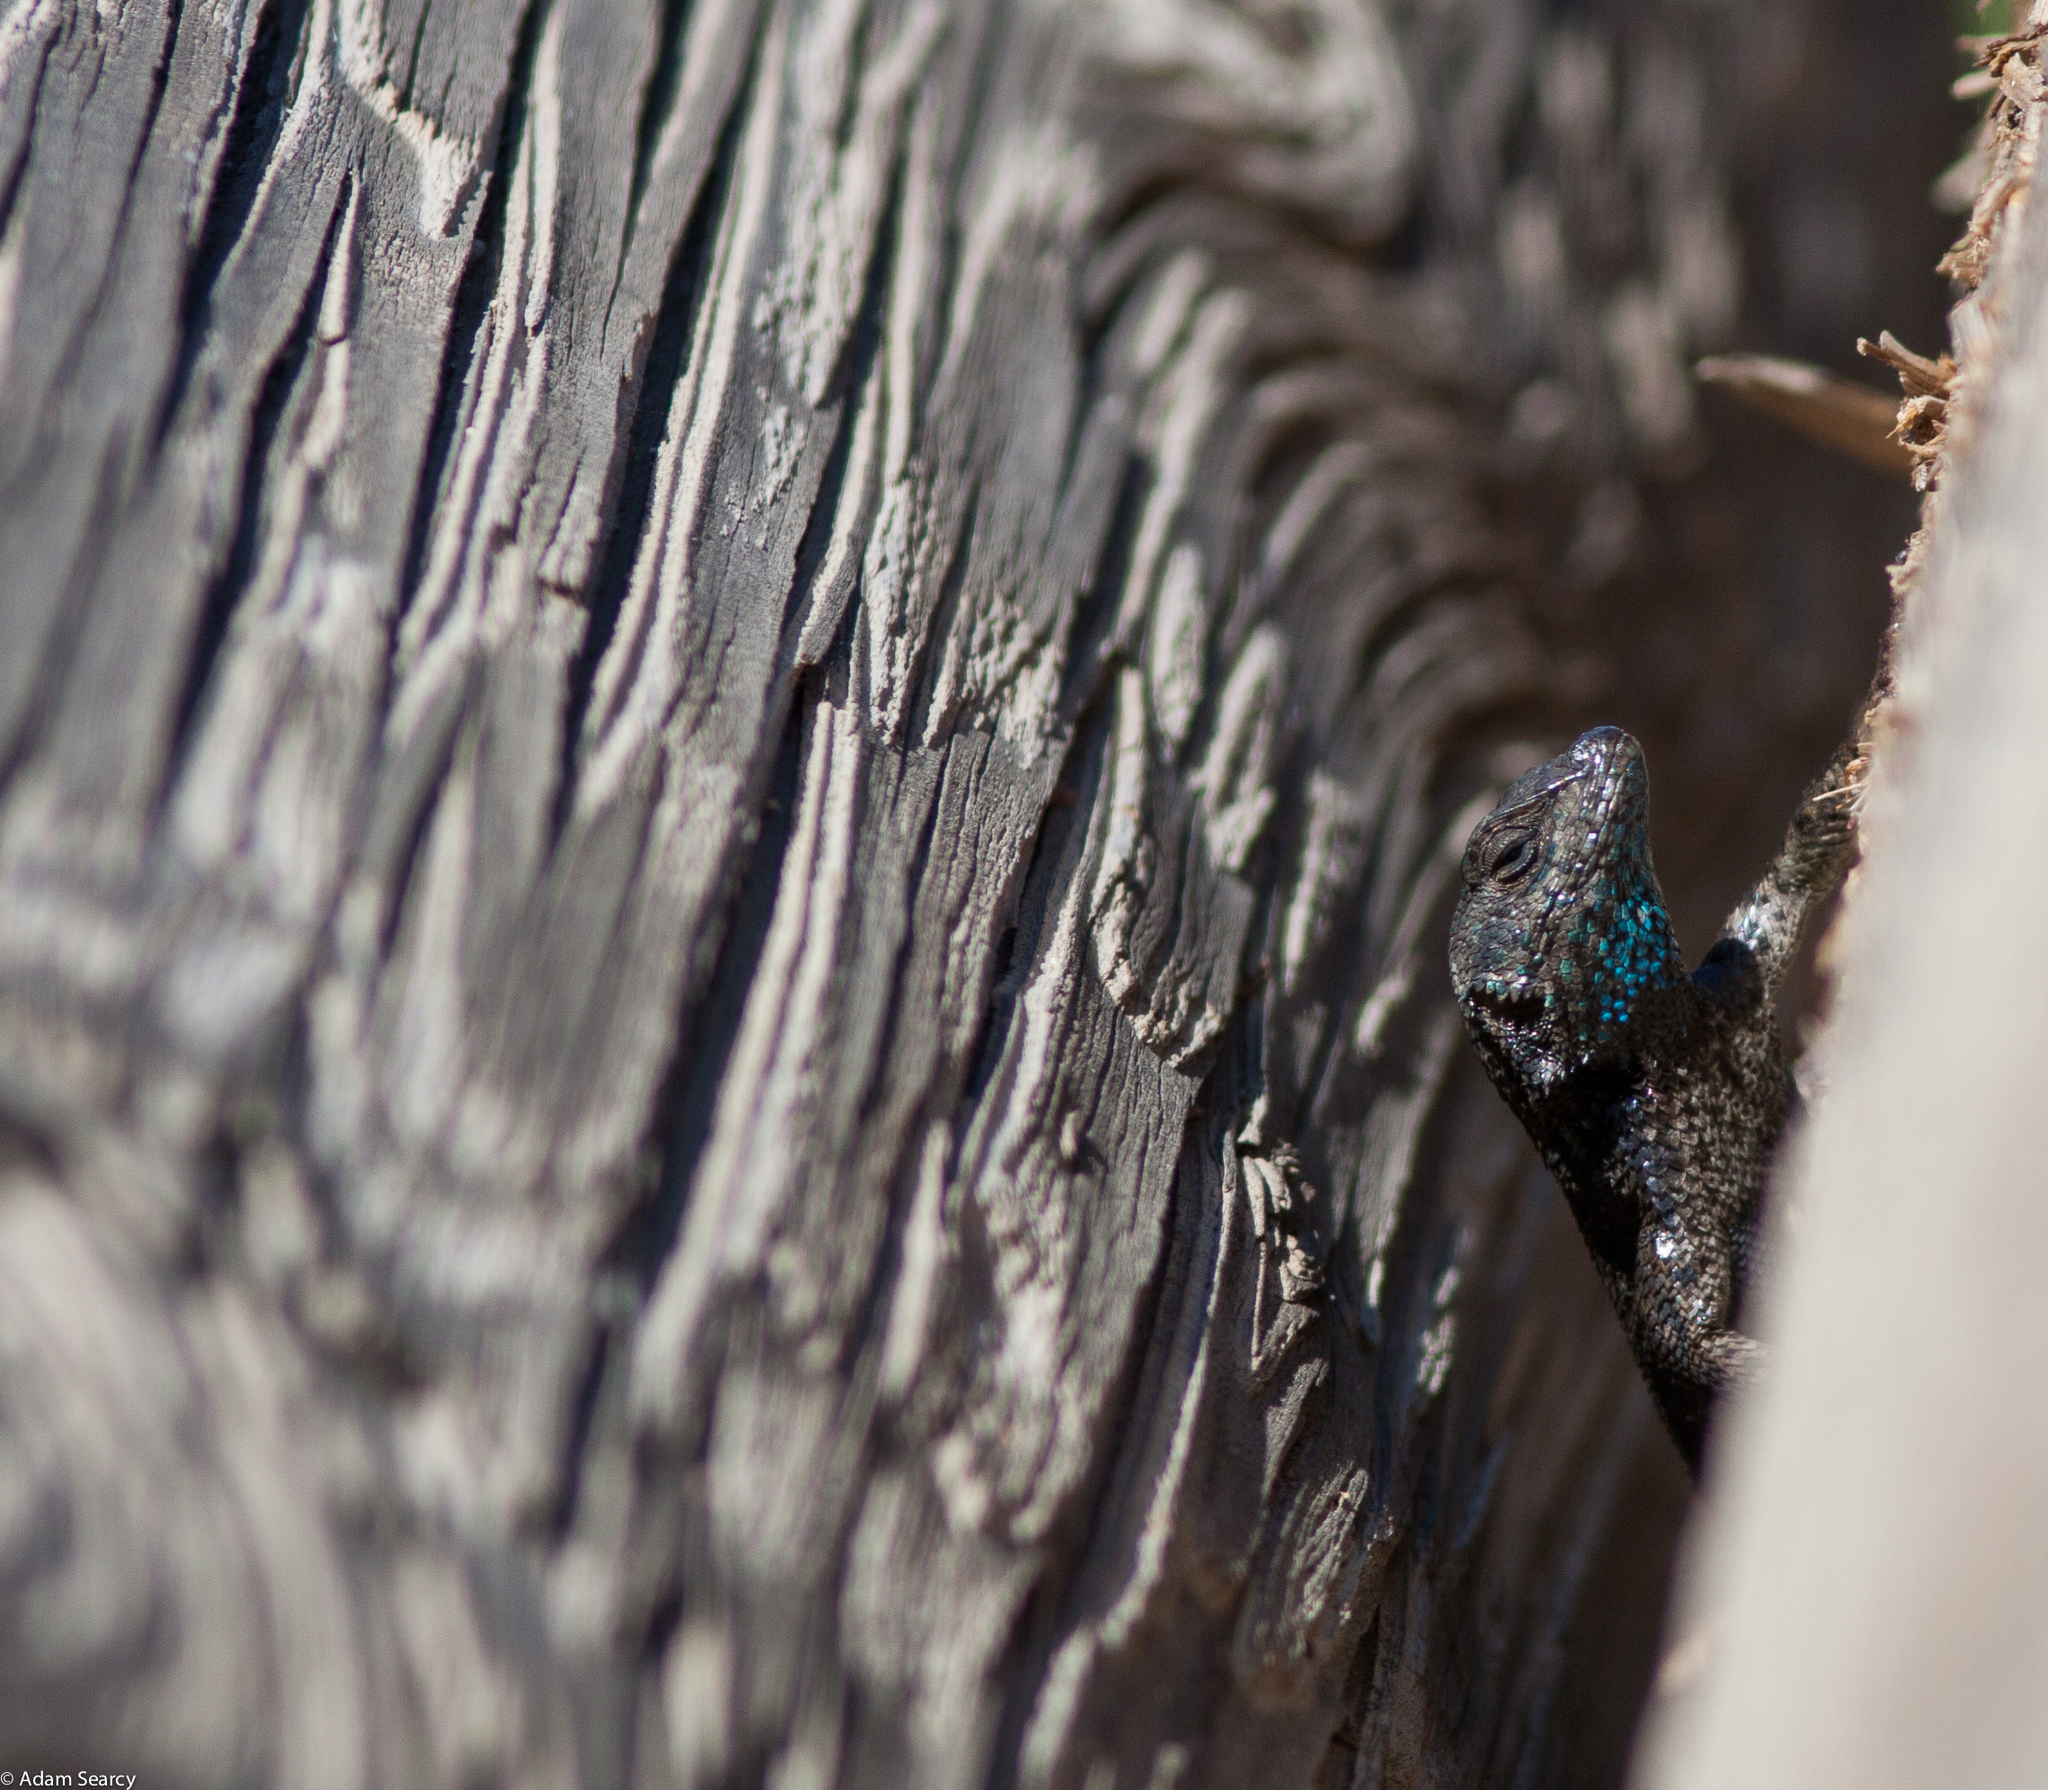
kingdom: Animalia
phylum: Chordata
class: Squamata
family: Phrynosomatidae
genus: Sceloporus
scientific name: Sceloporus becki
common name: Island fence lizard
